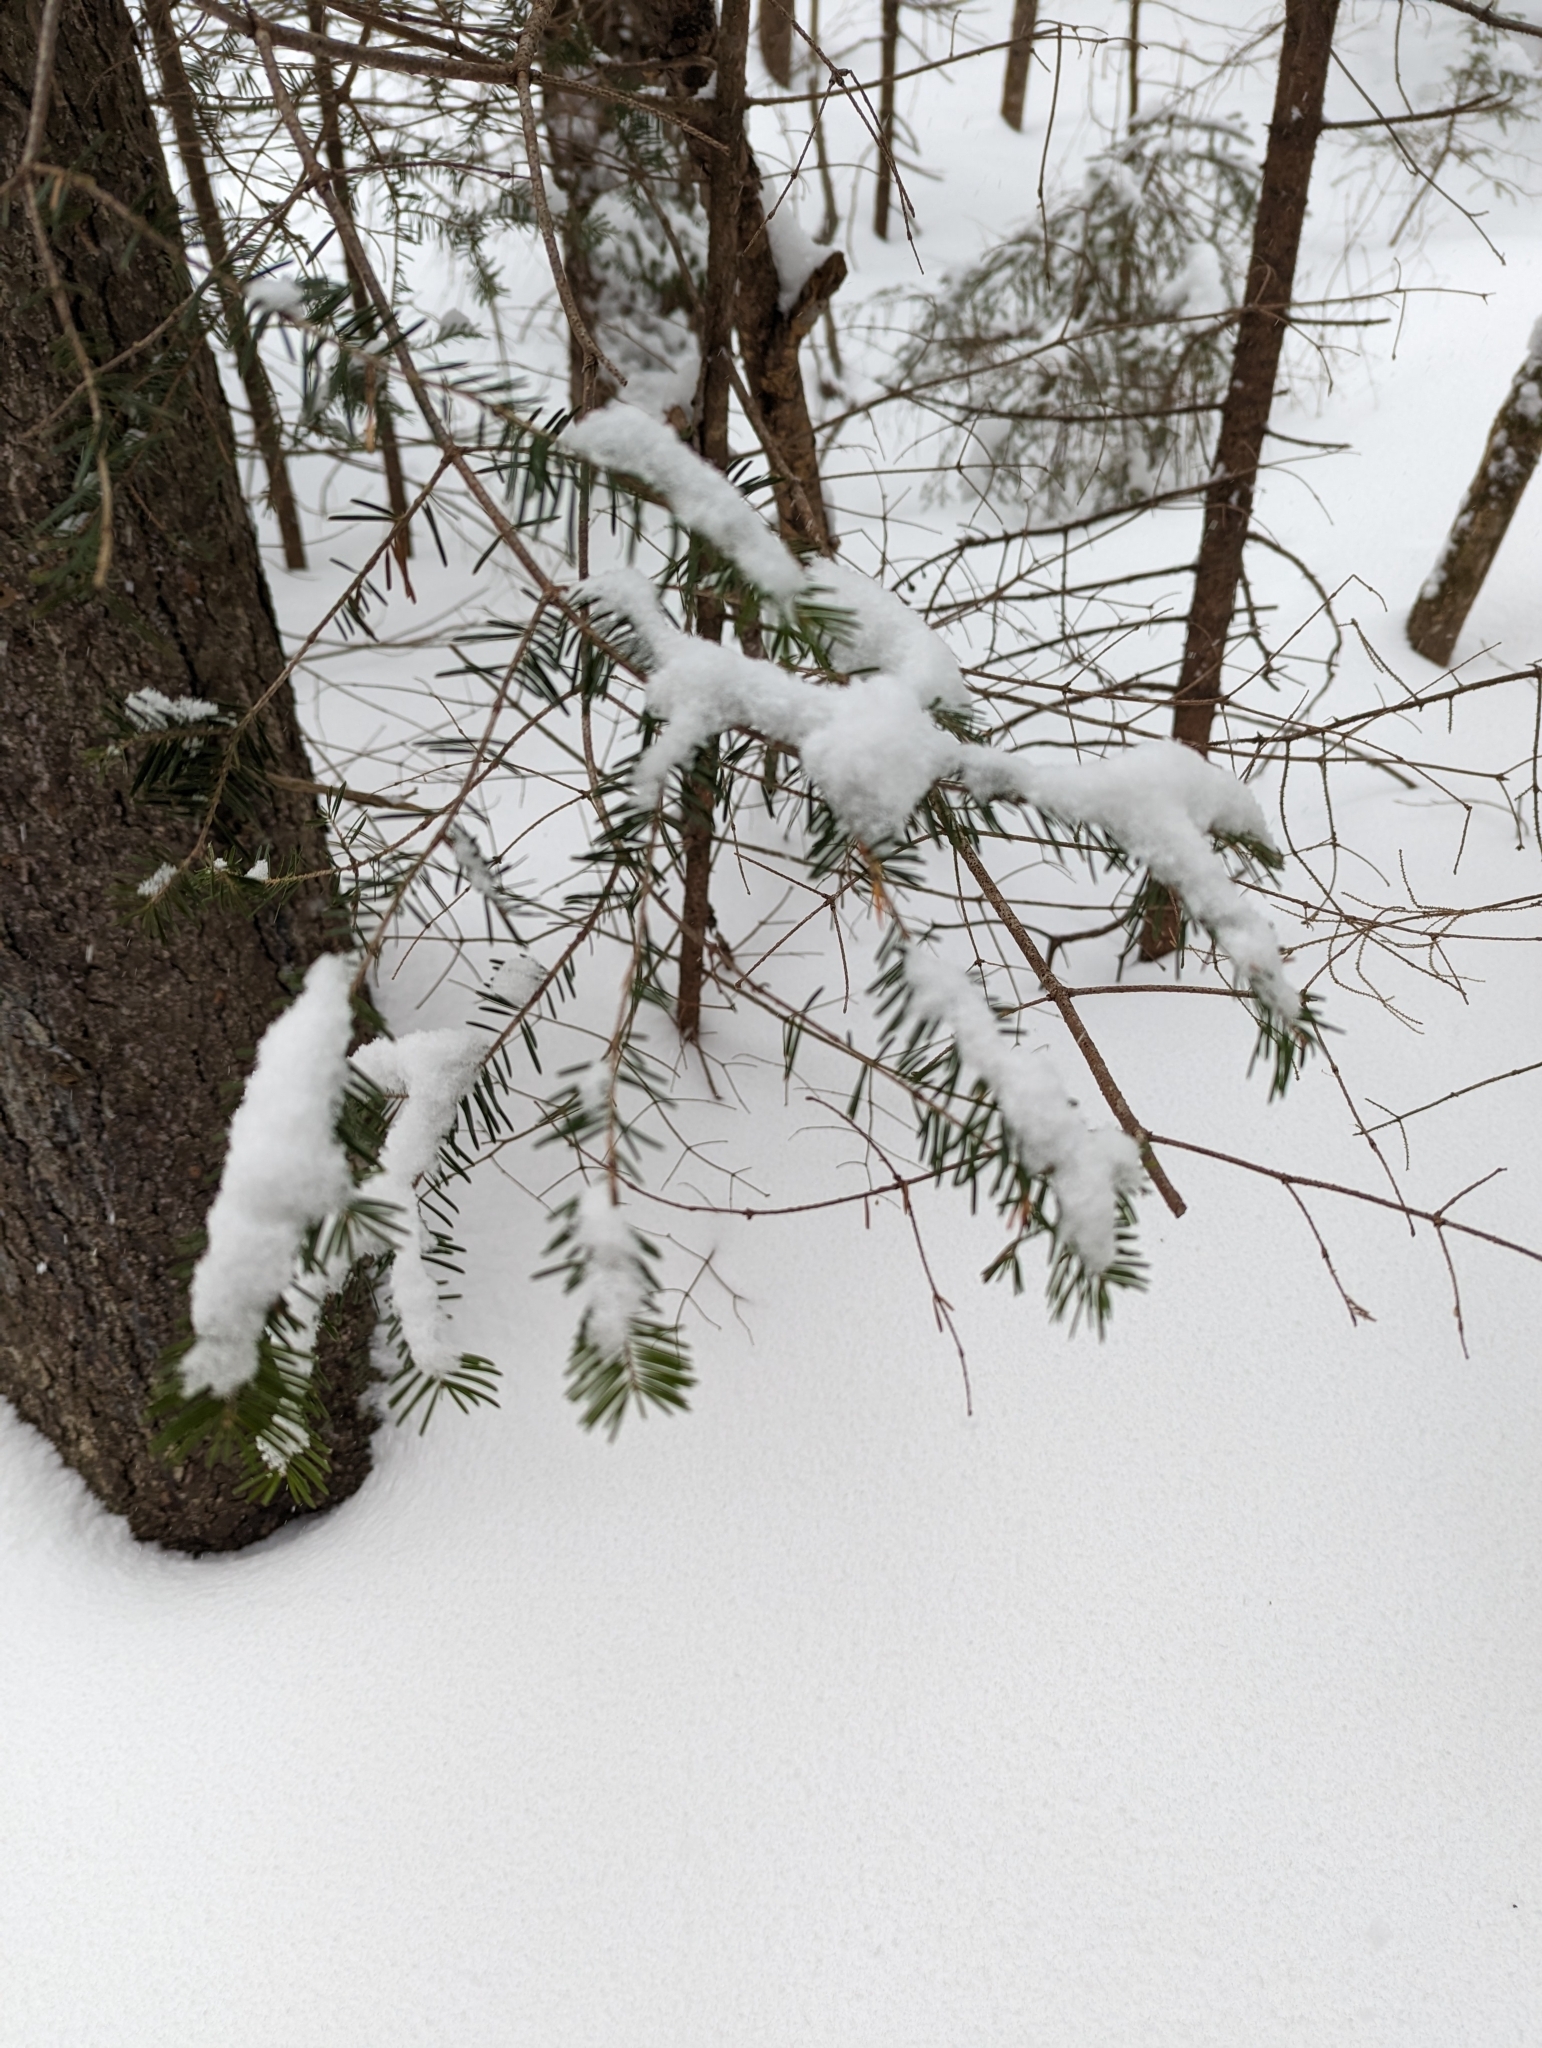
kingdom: Plantae
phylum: Tracheophyta
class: Pinopsida
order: Pinales
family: Pinaceae
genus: Abies
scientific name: Abies balsamea
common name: Balsam fir
